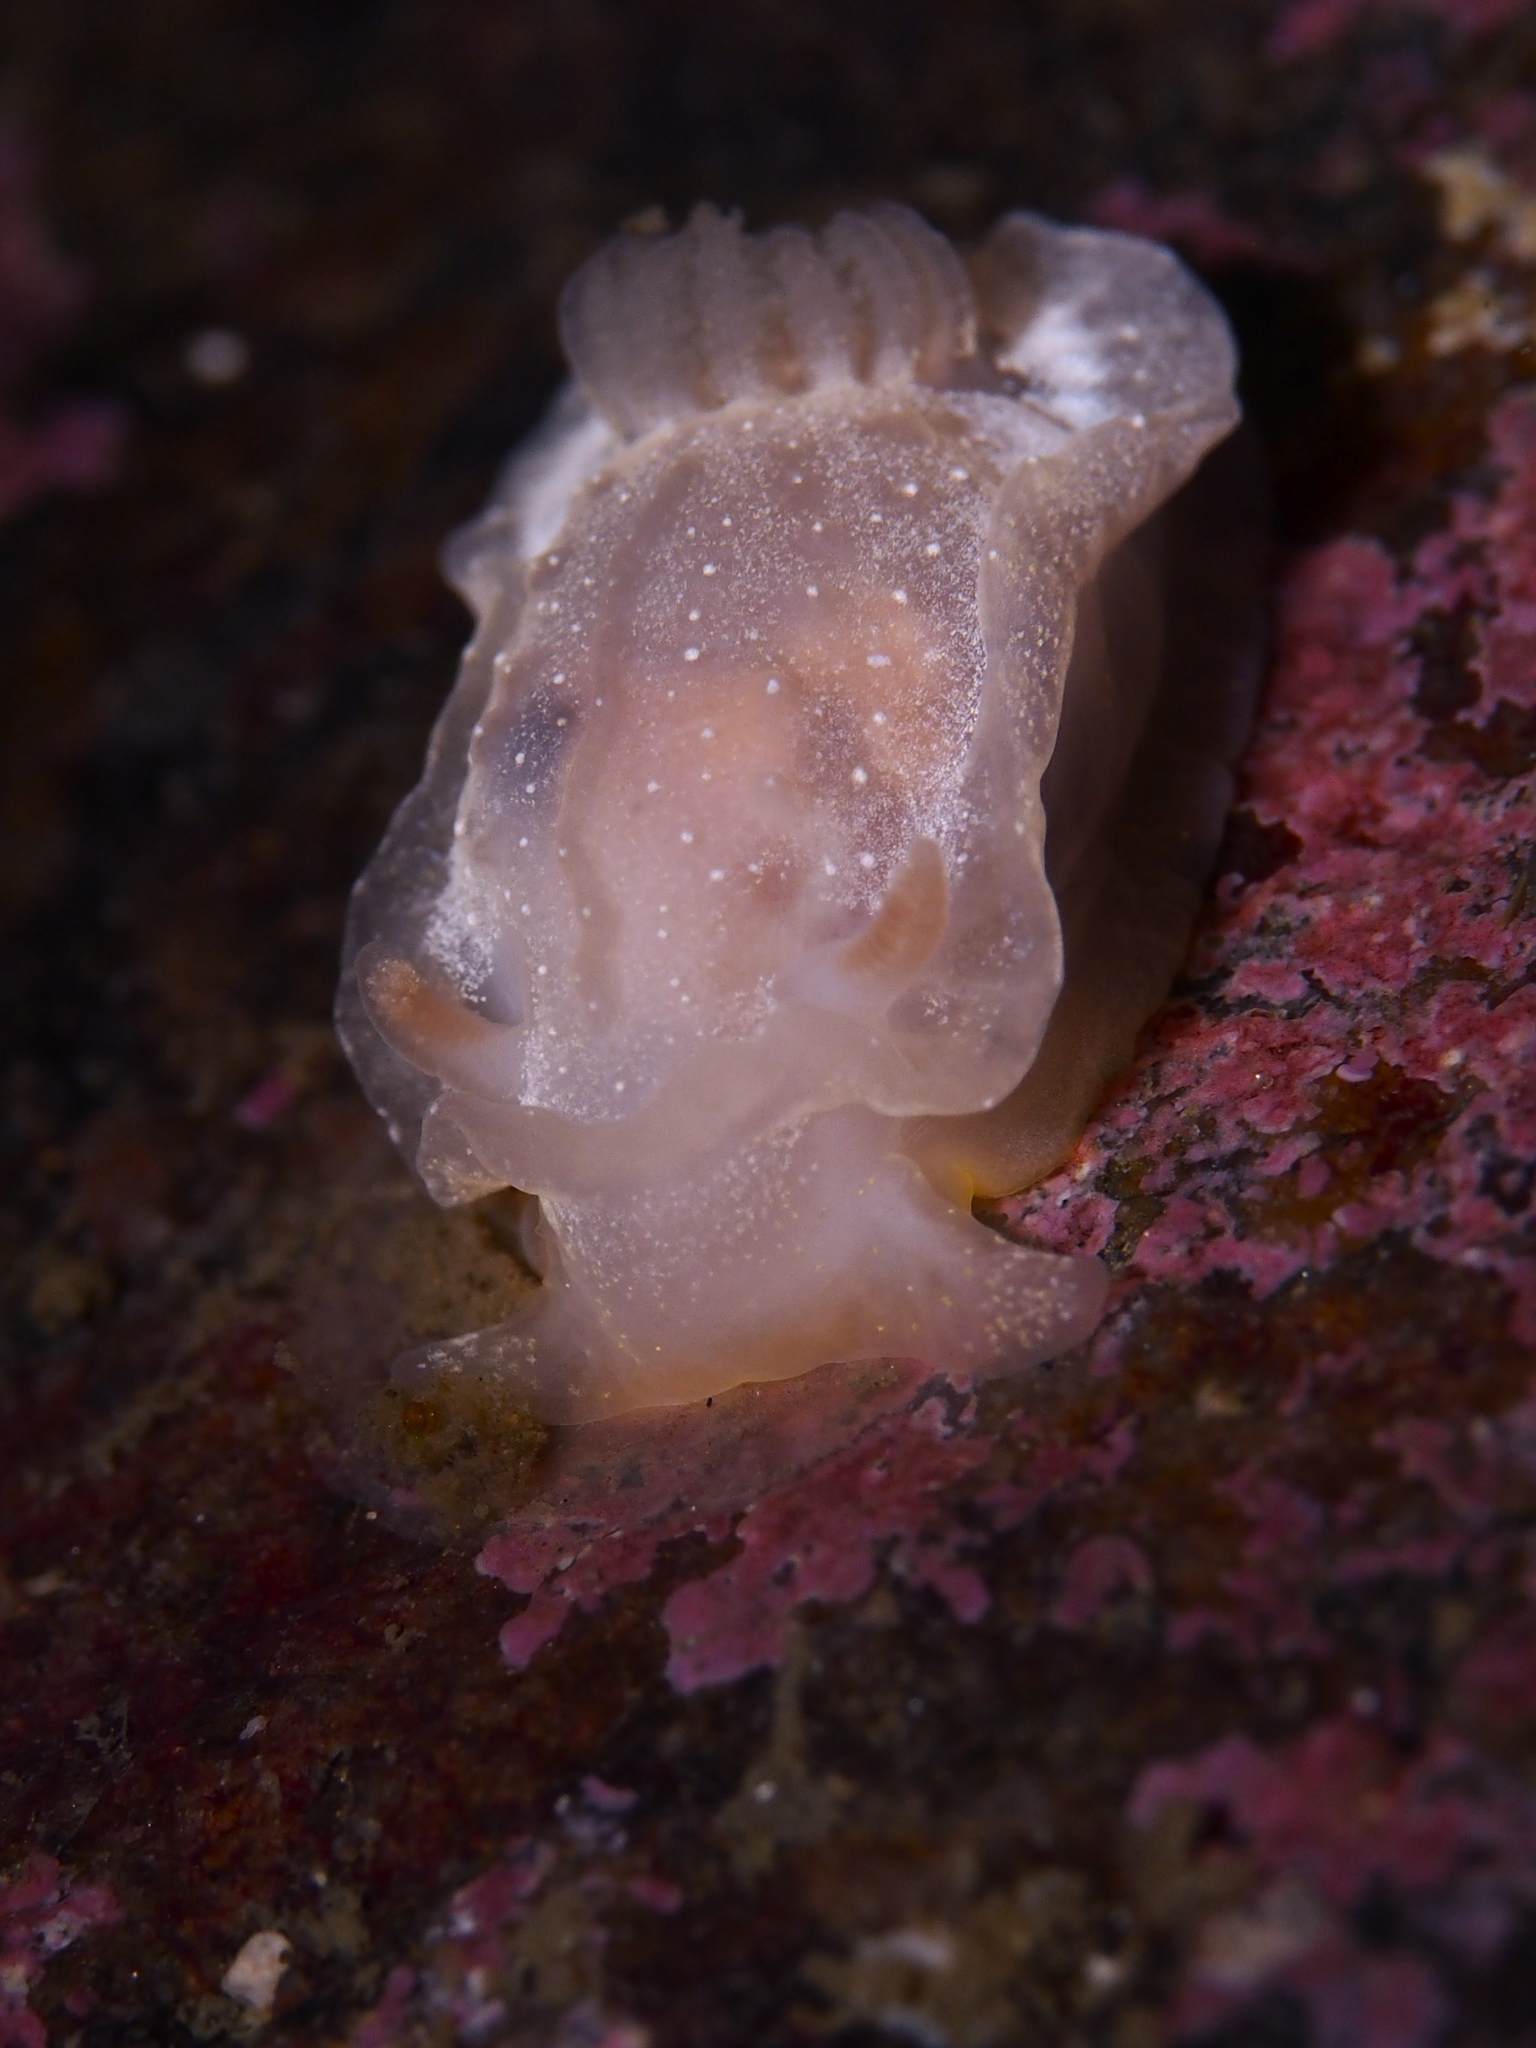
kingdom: Animalia
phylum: Mollusca
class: Gastropoda
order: Nudibranchia
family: Goniodorididae
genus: Okenia
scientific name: Okenia
